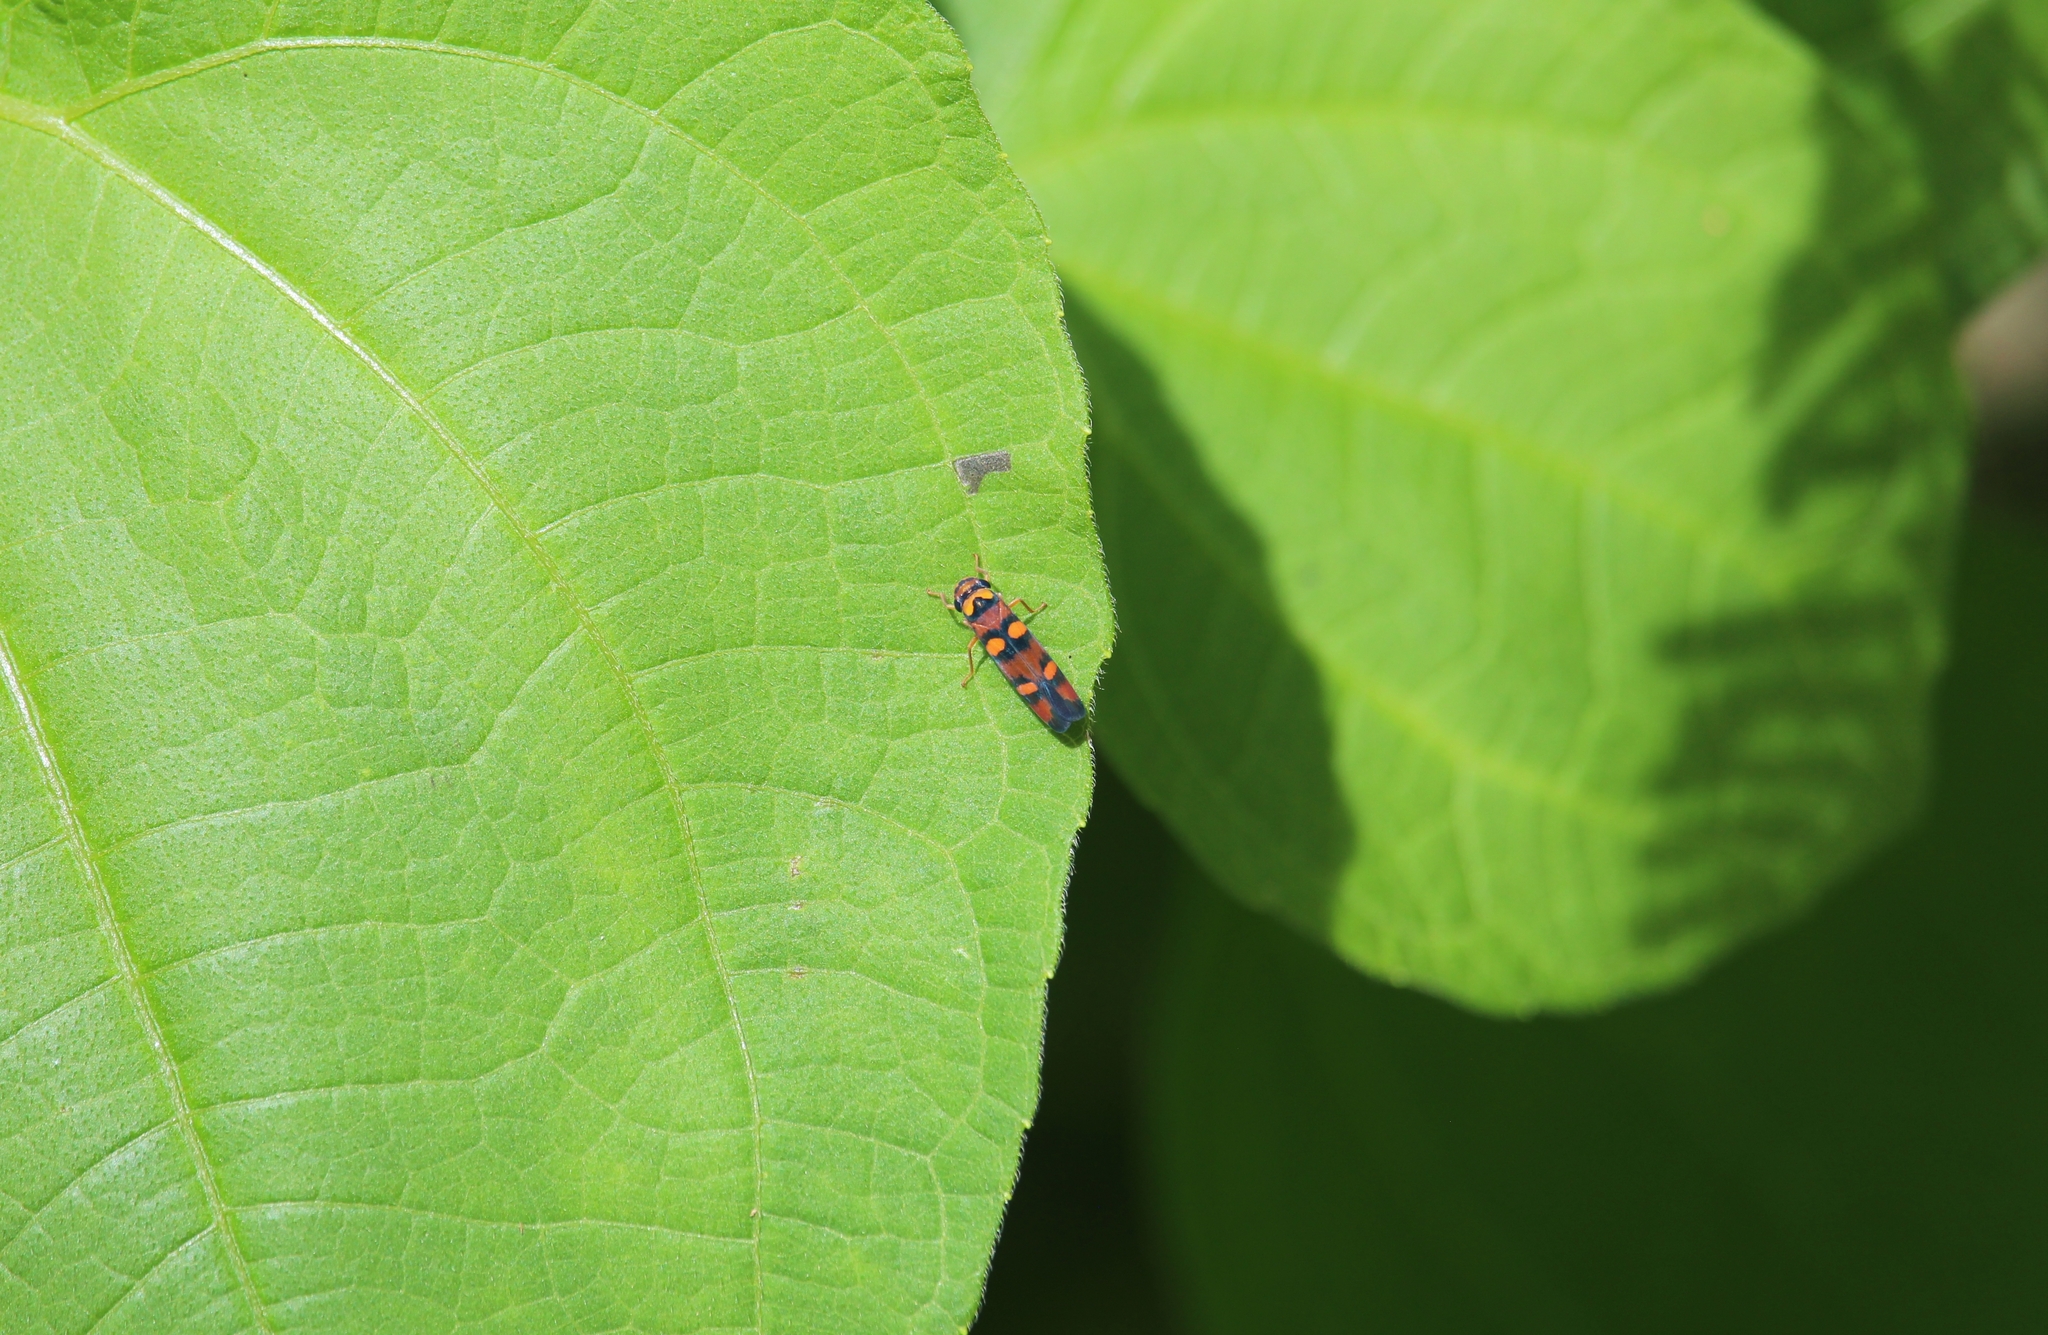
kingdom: Animalia
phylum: Arthropoda
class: Insecta
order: Hemiptera
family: Cicadellidae
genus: Pawiloma
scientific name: Pawiloma jucunda
